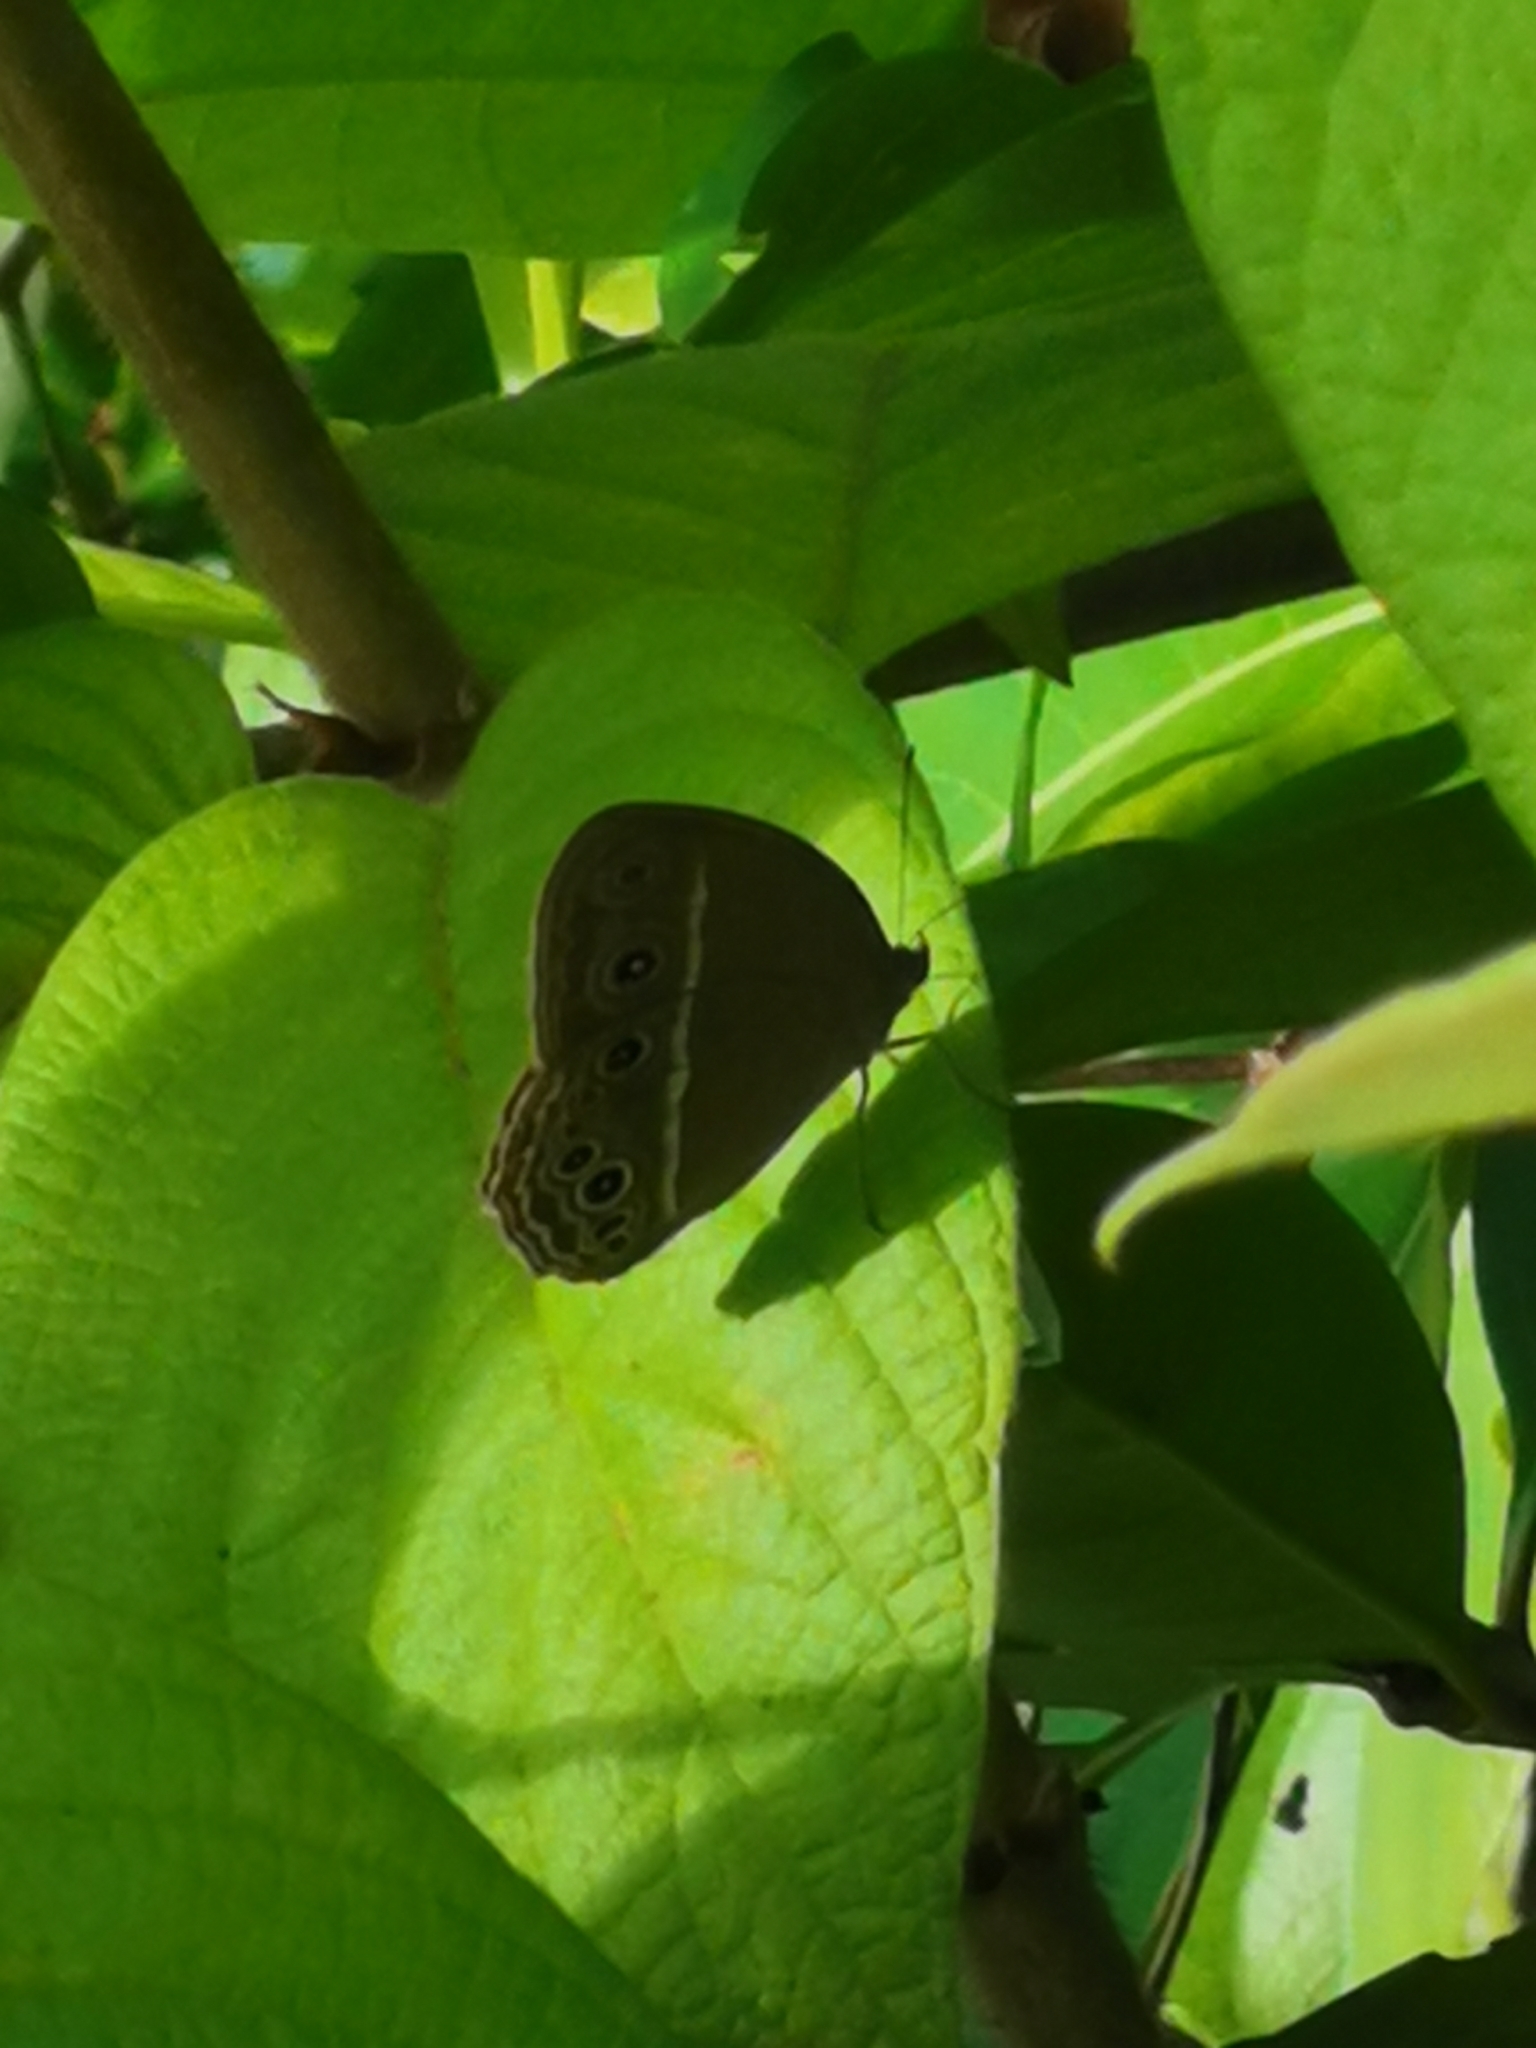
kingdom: Animalia
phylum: Arthropoda
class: Insecta
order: Lepidoptera
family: Nymphalidae
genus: Mycalesis
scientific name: Mycalesis perseus
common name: Dingy bushbrown
